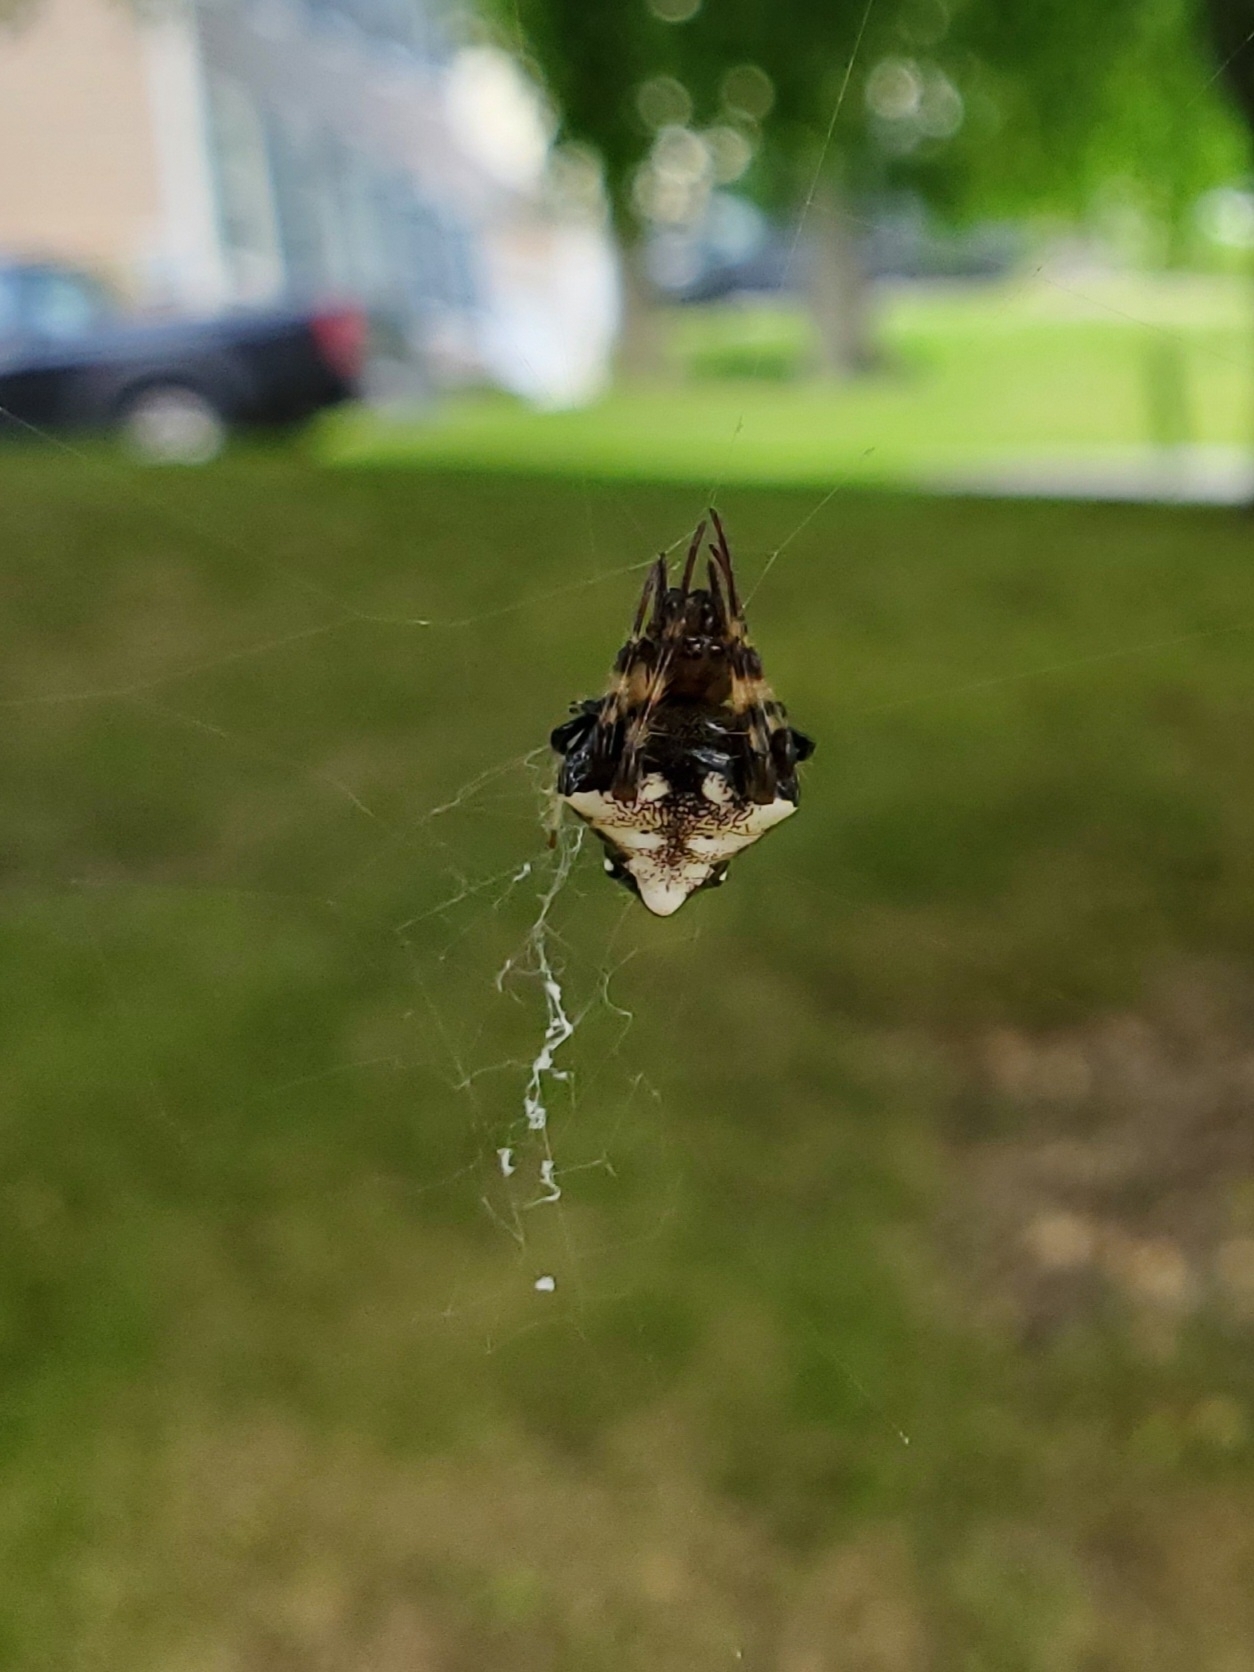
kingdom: Animalia
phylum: Arthropoda
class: Arachnida
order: Araneae
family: Araneidae
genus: Verrucosa
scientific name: Verrucosa arenata
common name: Orb weavers
